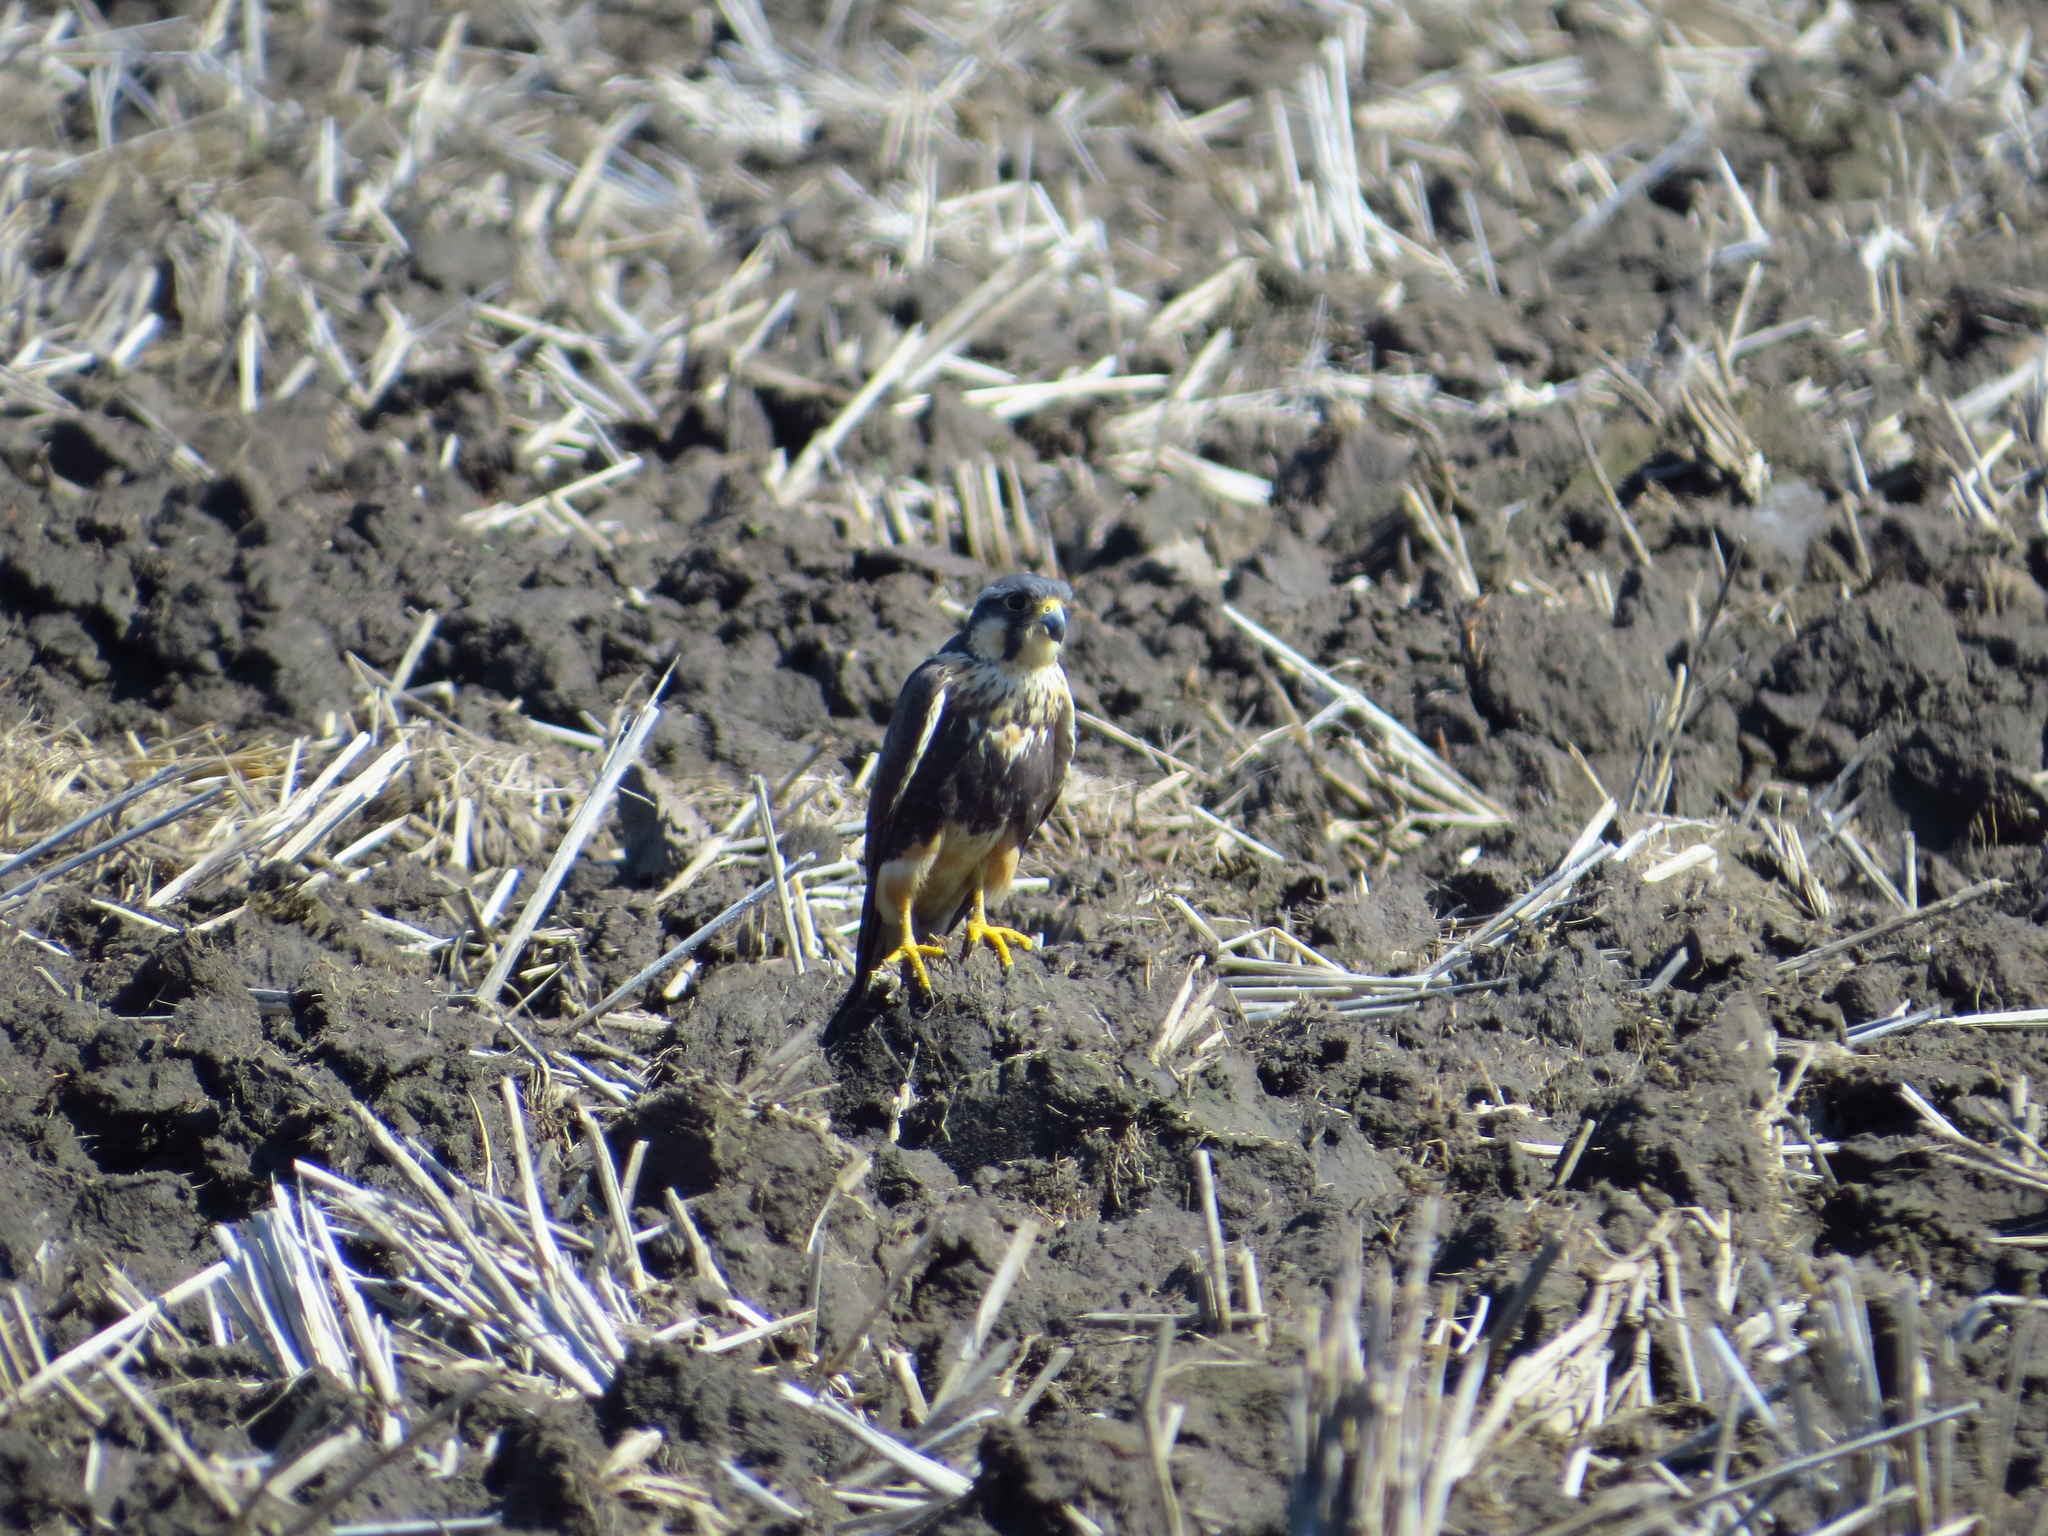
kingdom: Animalia
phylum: Chordata
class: Aves
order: Falconiformes
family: Falconidae
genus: Falco
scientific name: Falco femoralis
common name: Aplomado falcon
